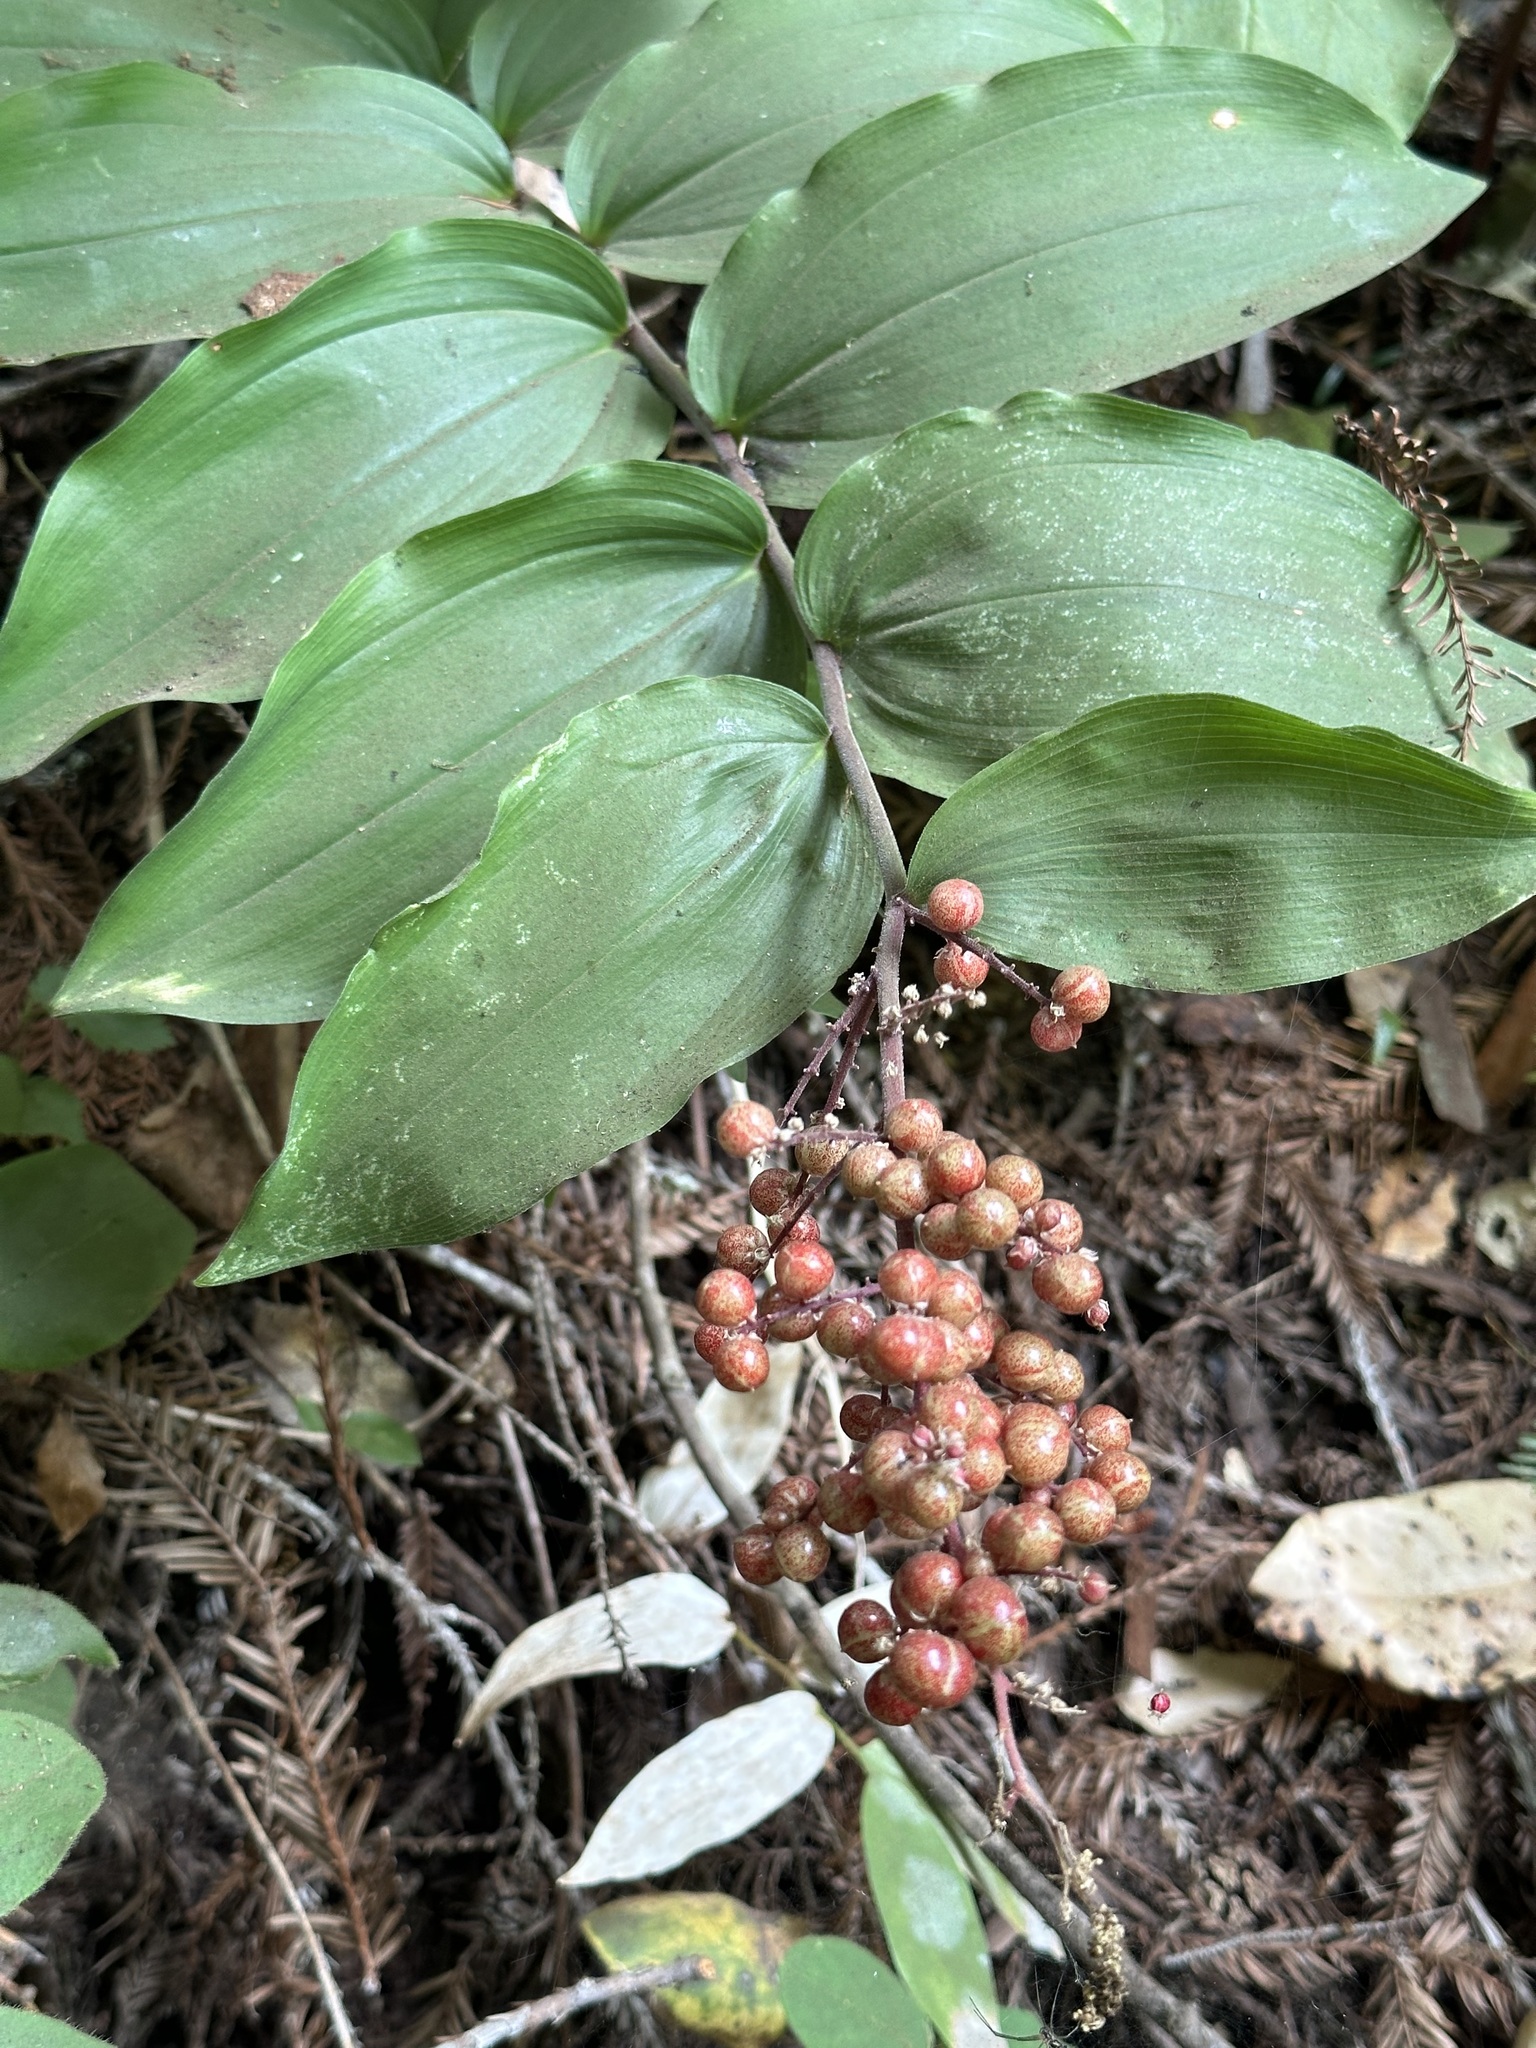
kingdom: Plantae
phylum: Tracheophyta
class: Liliopsida
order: Asparagales
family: Asparagaceae
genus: Maianthemum
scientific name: Maianthemum racemosum
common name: False spikenard
